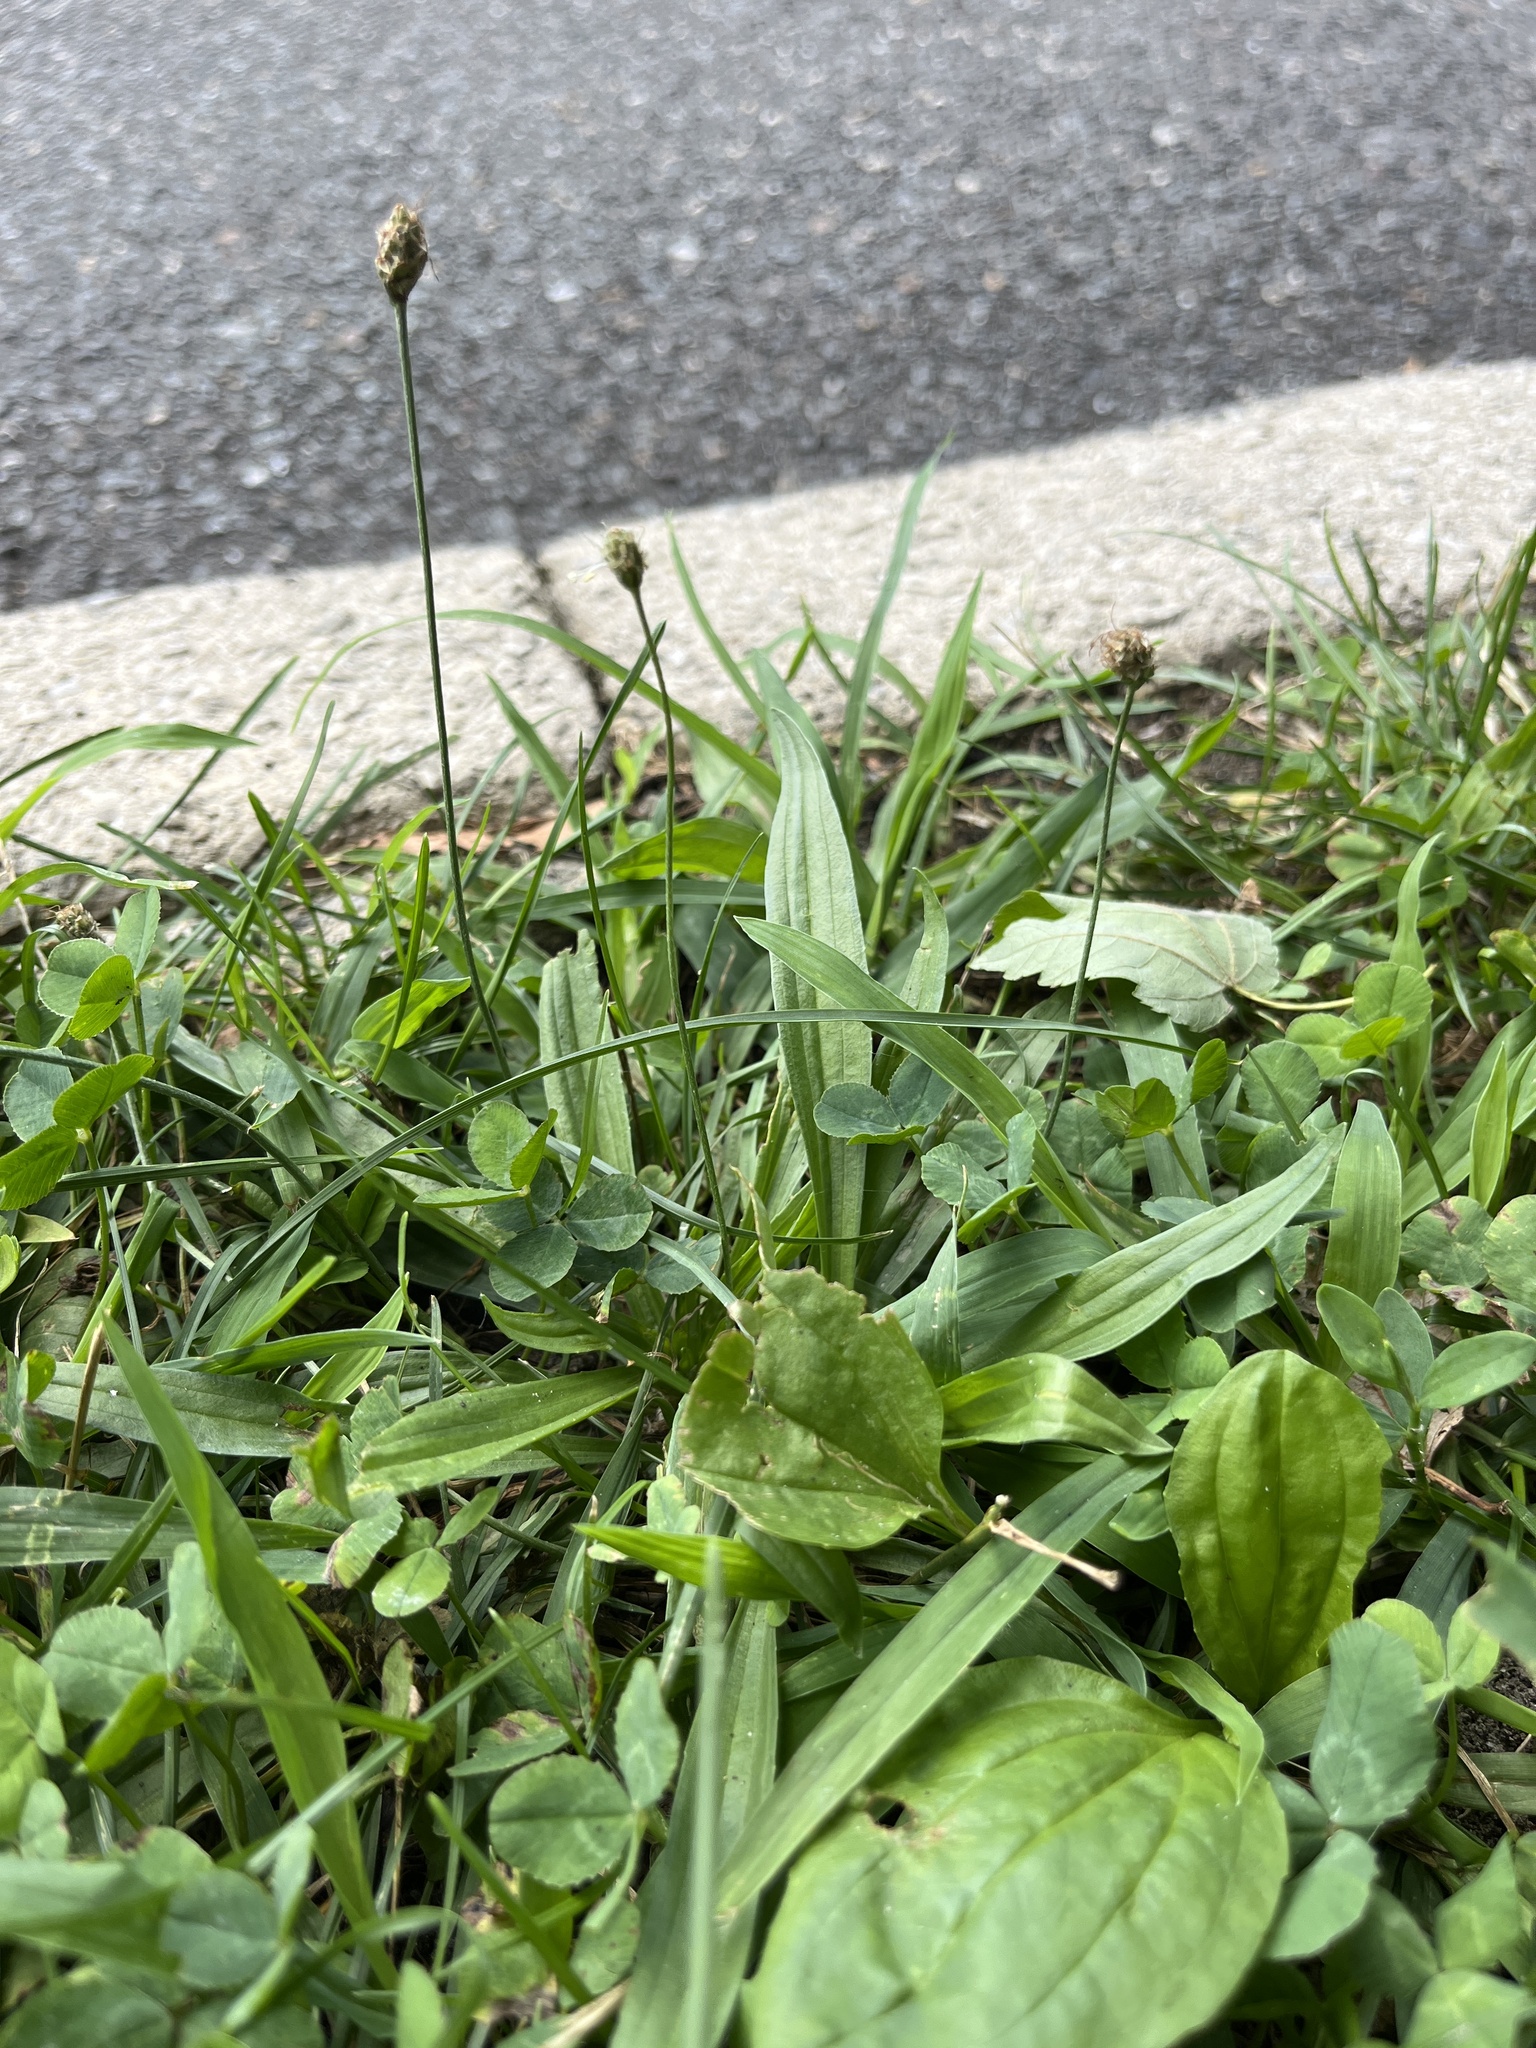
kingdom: Plantae
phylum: Tracheophyta
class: Magnoliopsida
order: Lamiales
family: Plantaginaceae
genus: Plantago
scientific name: Plantago lanceolata
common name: Ribwort plantain
